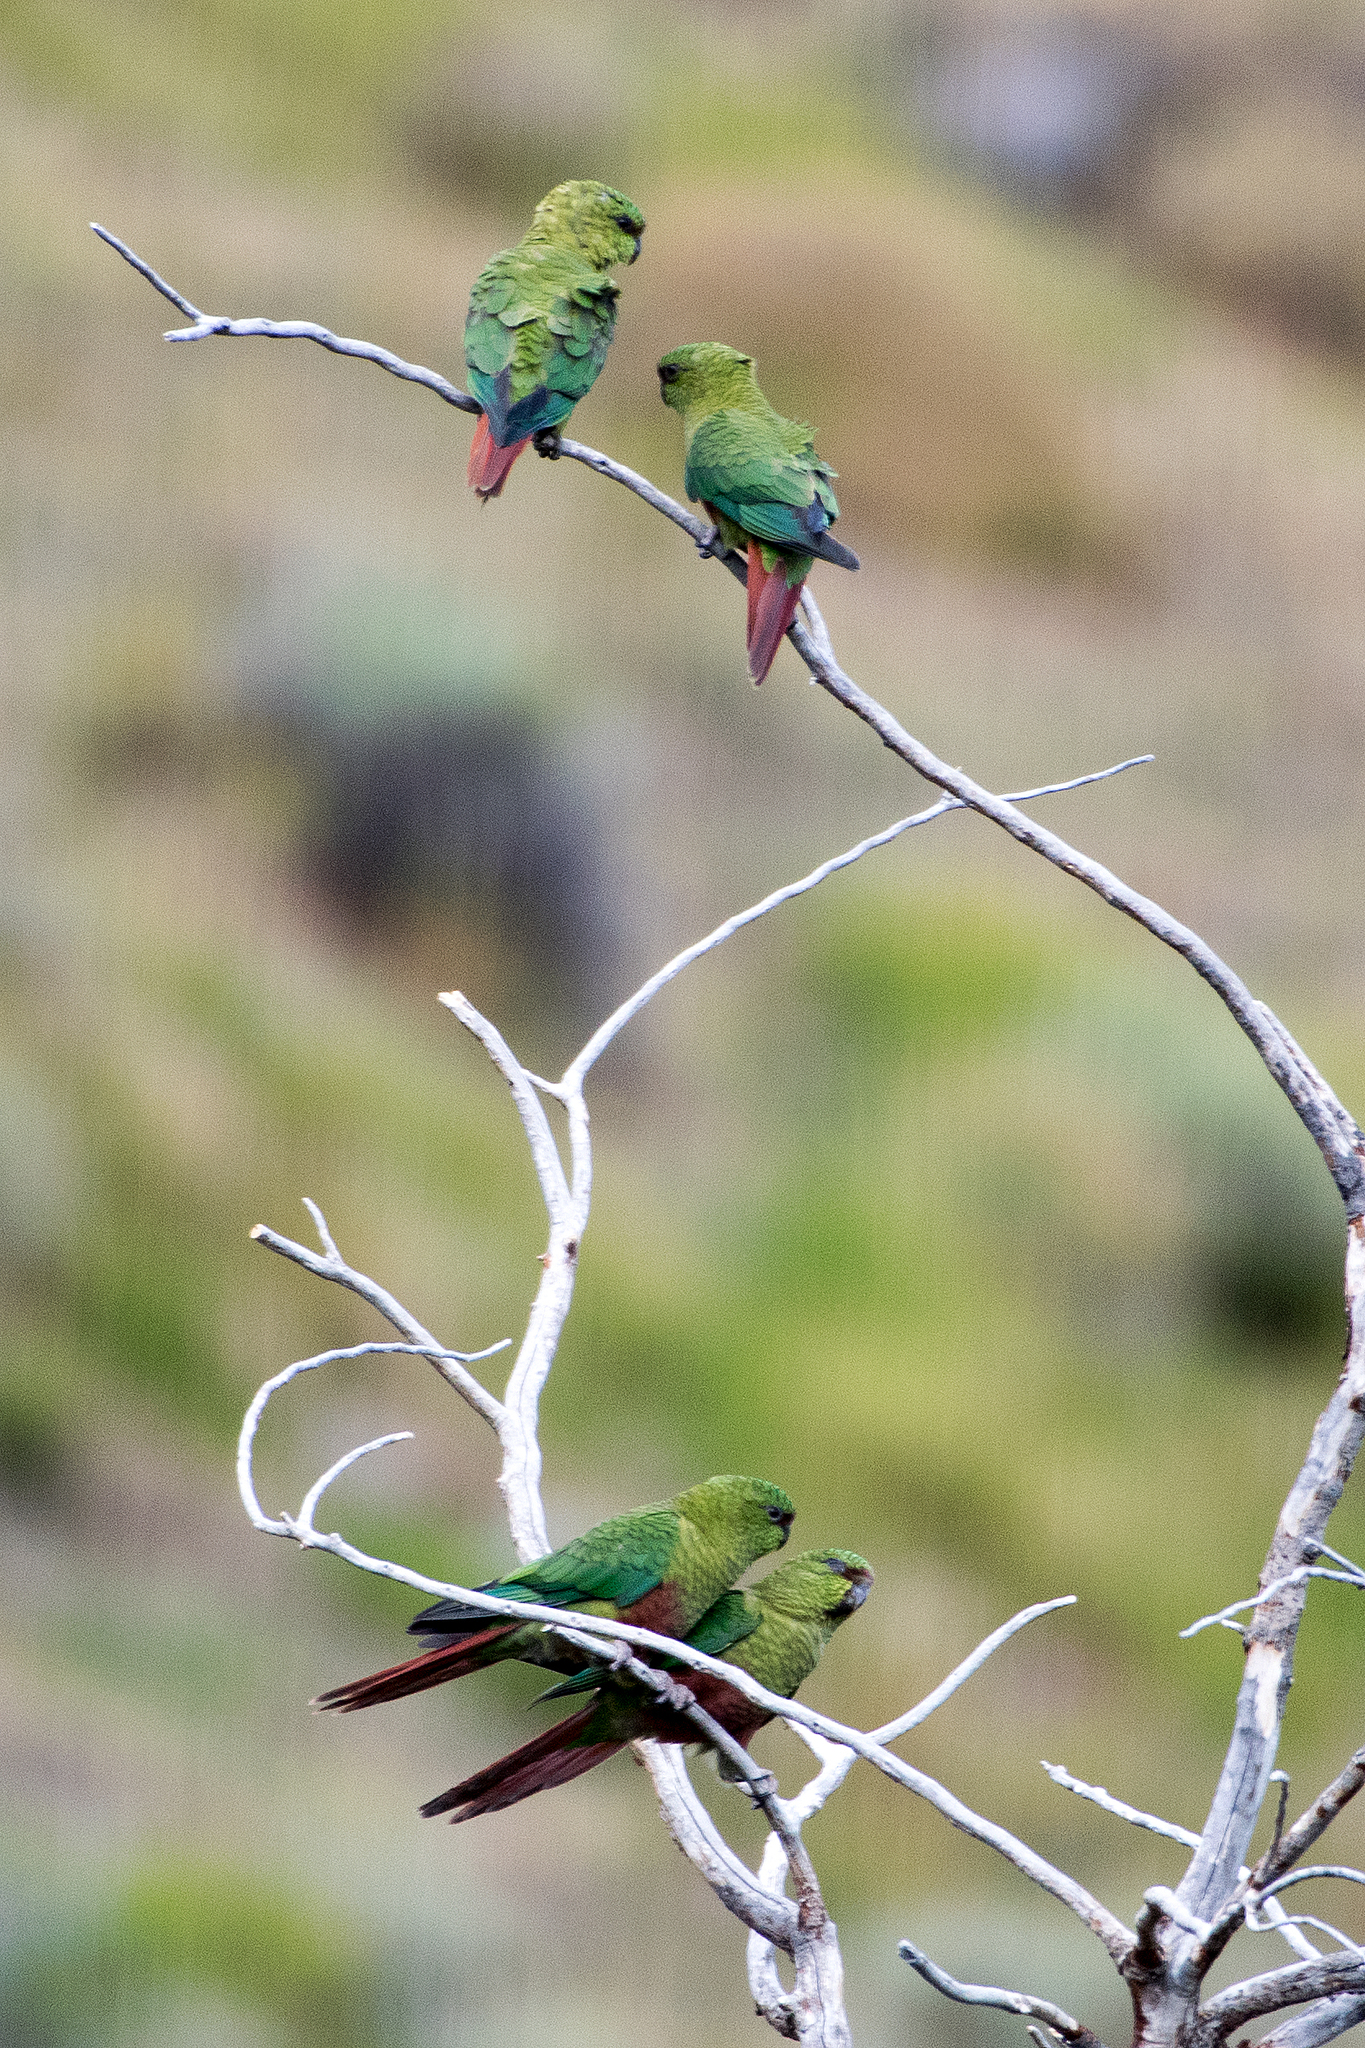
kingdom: Animalia
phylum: Chordata
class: Aves
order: Psittaciformes
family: Psittacidae
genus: Enicognathus
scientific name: Enicognathus ferrugineus
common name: Austral parakeet
